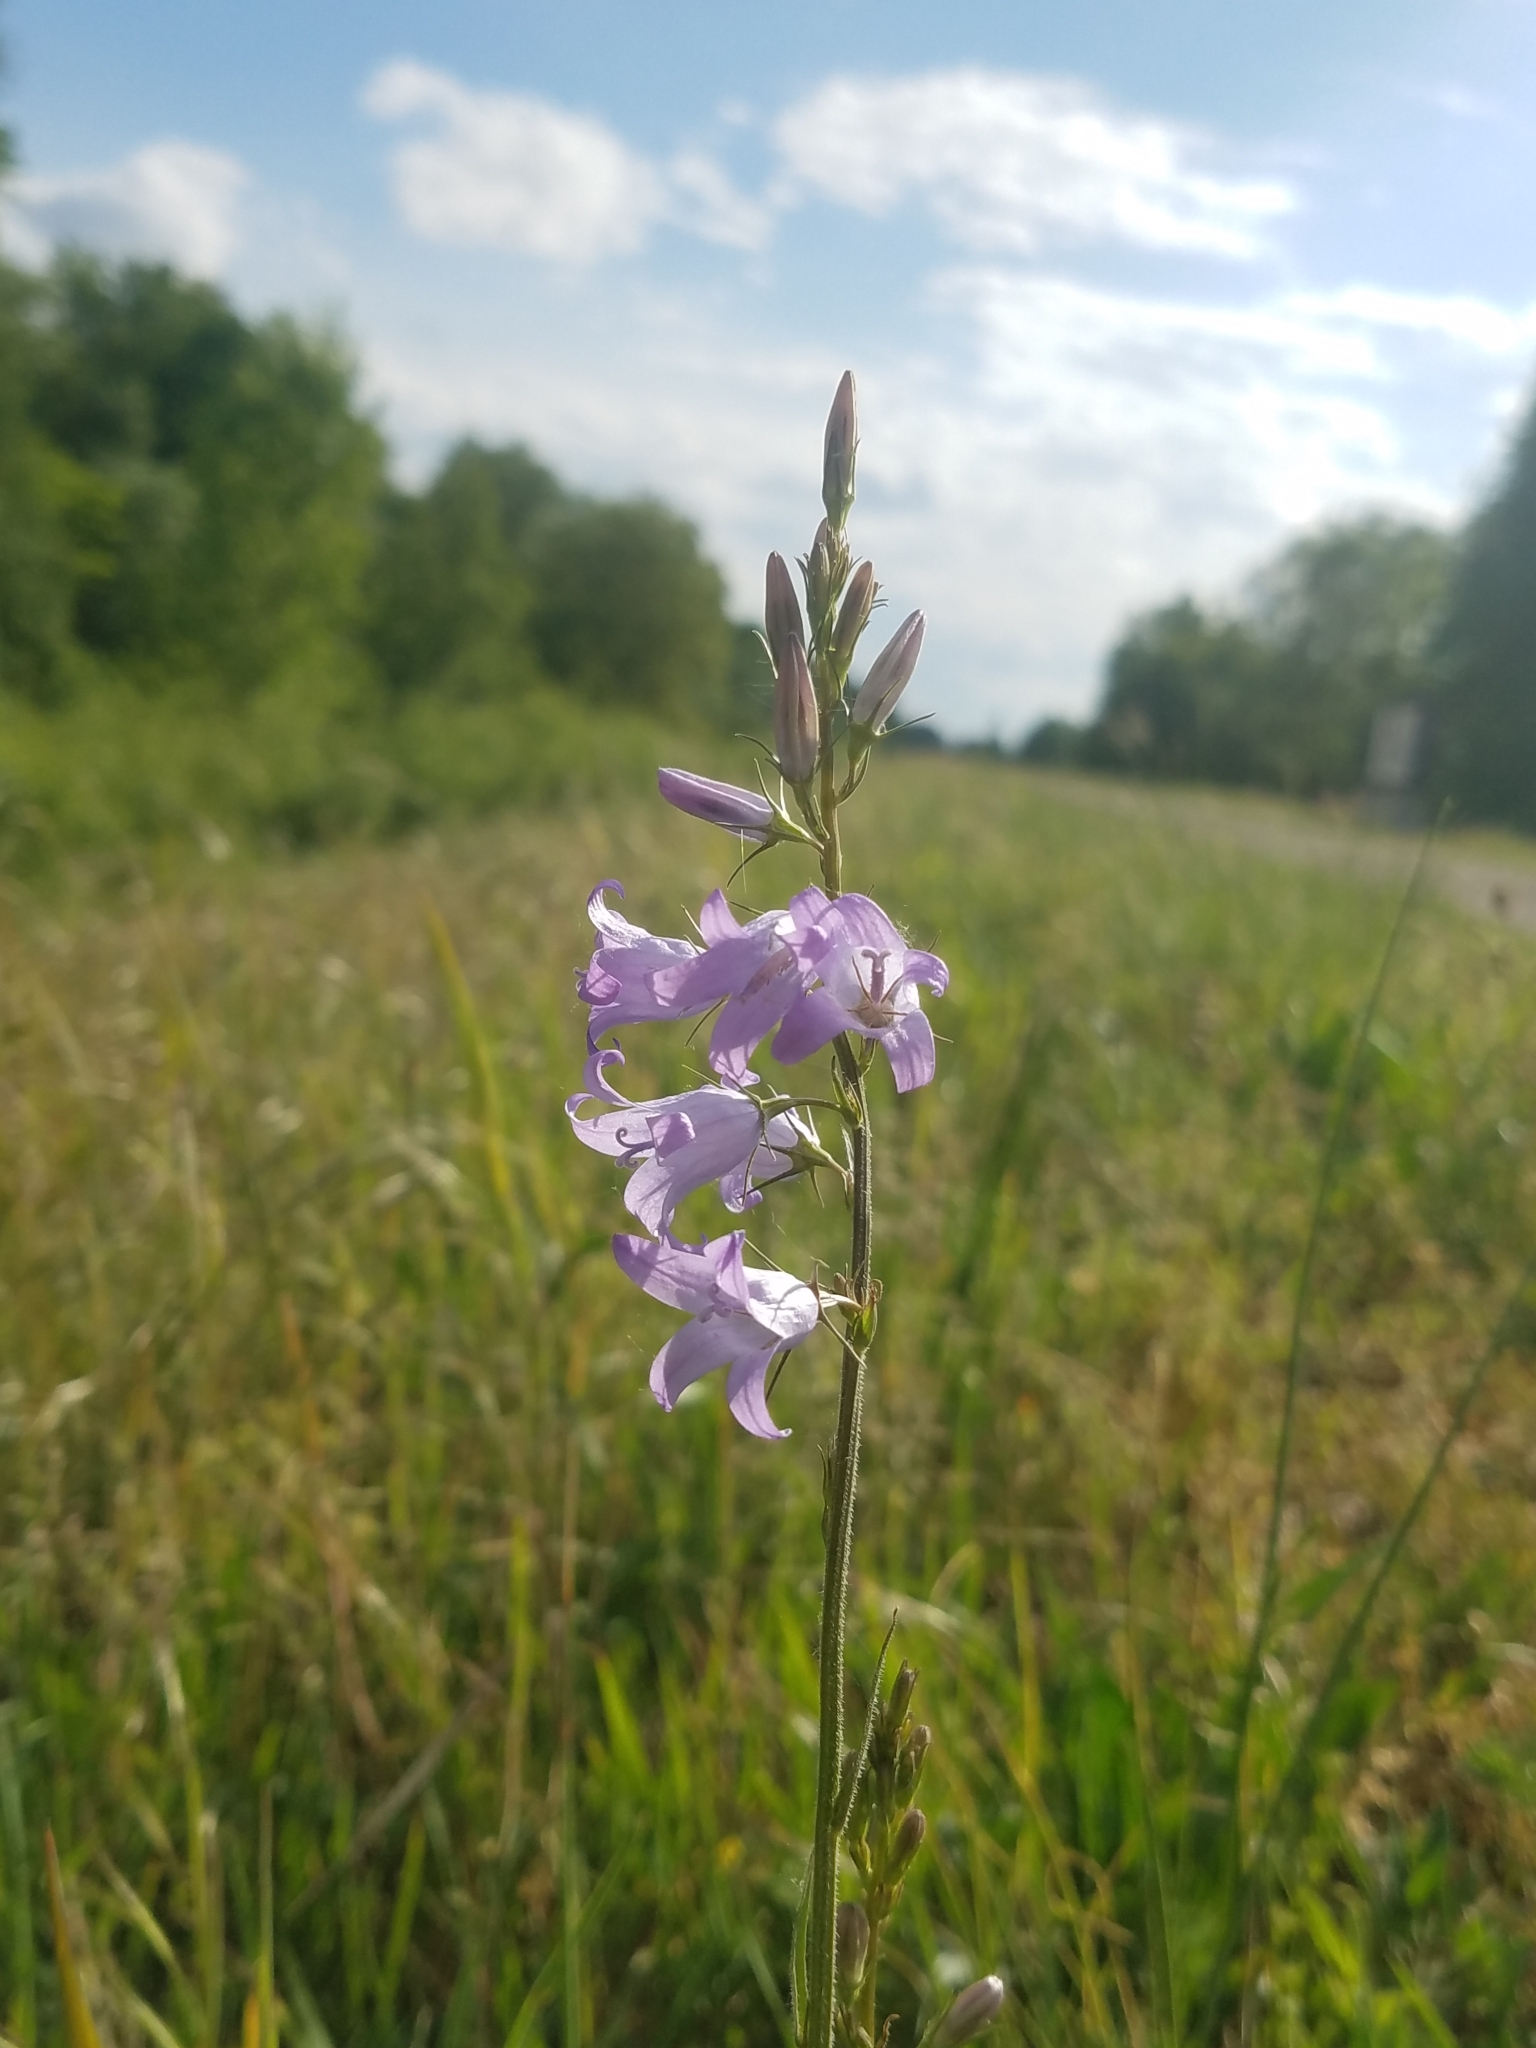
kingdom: Plantae
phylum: Tracheophyta
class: Magnoliopsida
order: Asterales
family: Campanulaceae
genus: Campanula
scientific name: Campanula rapunculus
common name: Rampion bellflower
